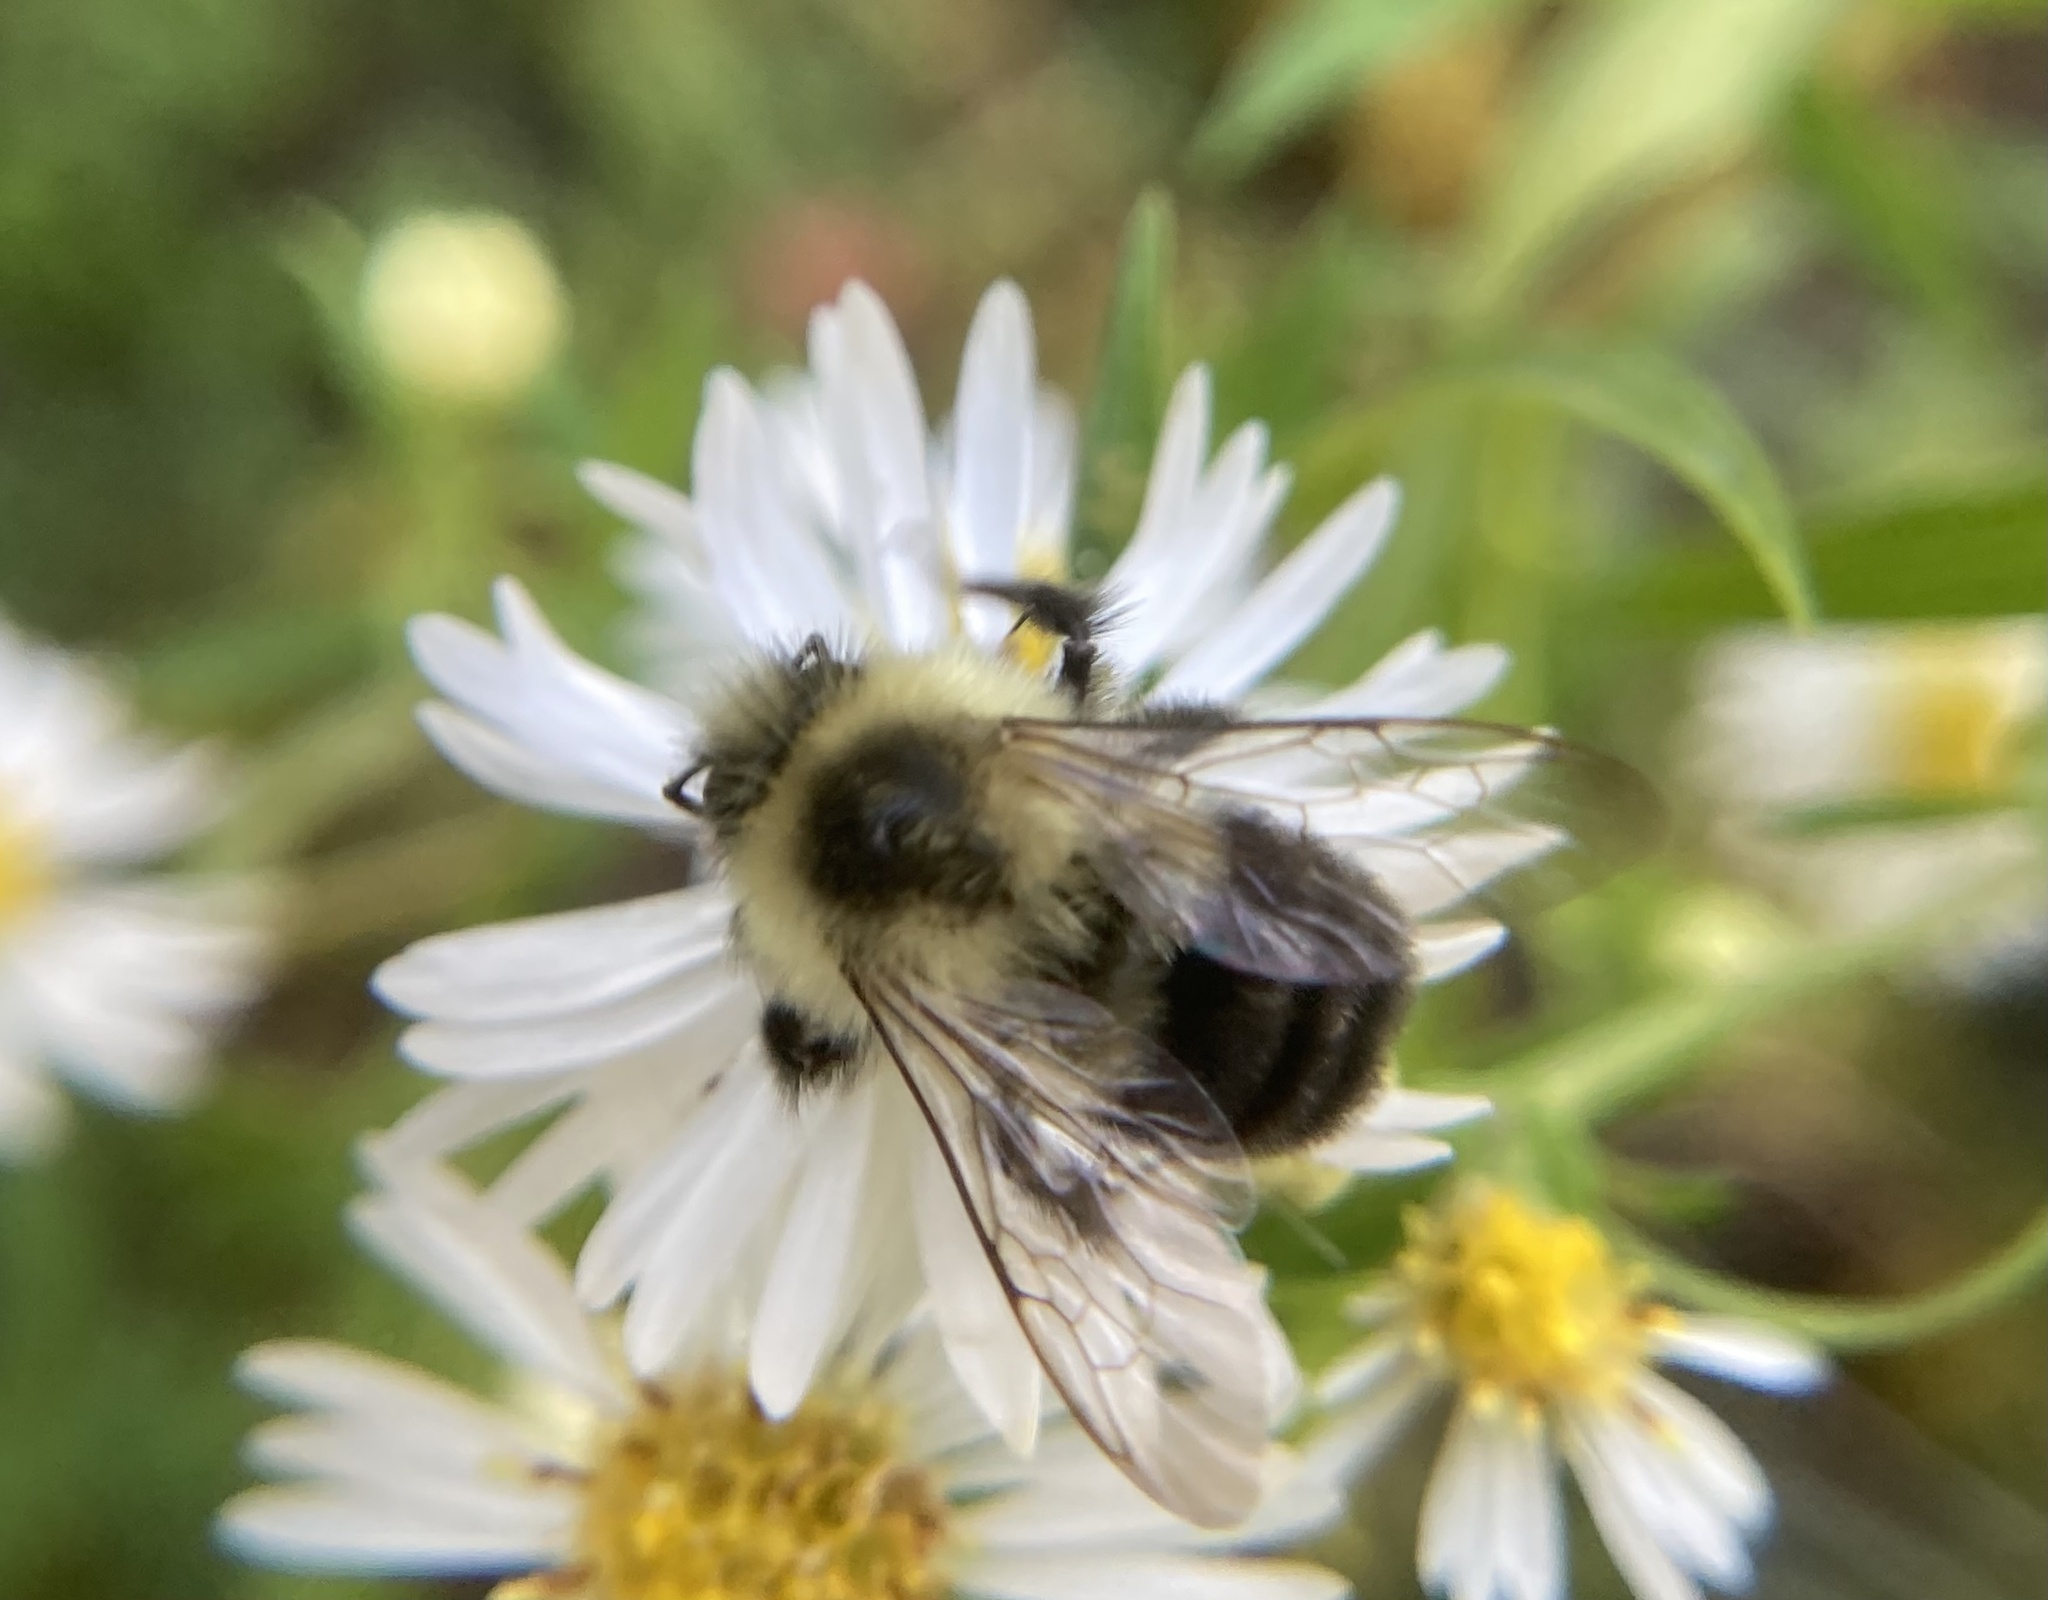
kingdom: Animalia
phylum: Arthropoda
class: Insecta
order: Hymenoptera
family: Apidae
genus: Bombus
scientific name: Bombus impatiens
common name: Common eastern bumble bee
